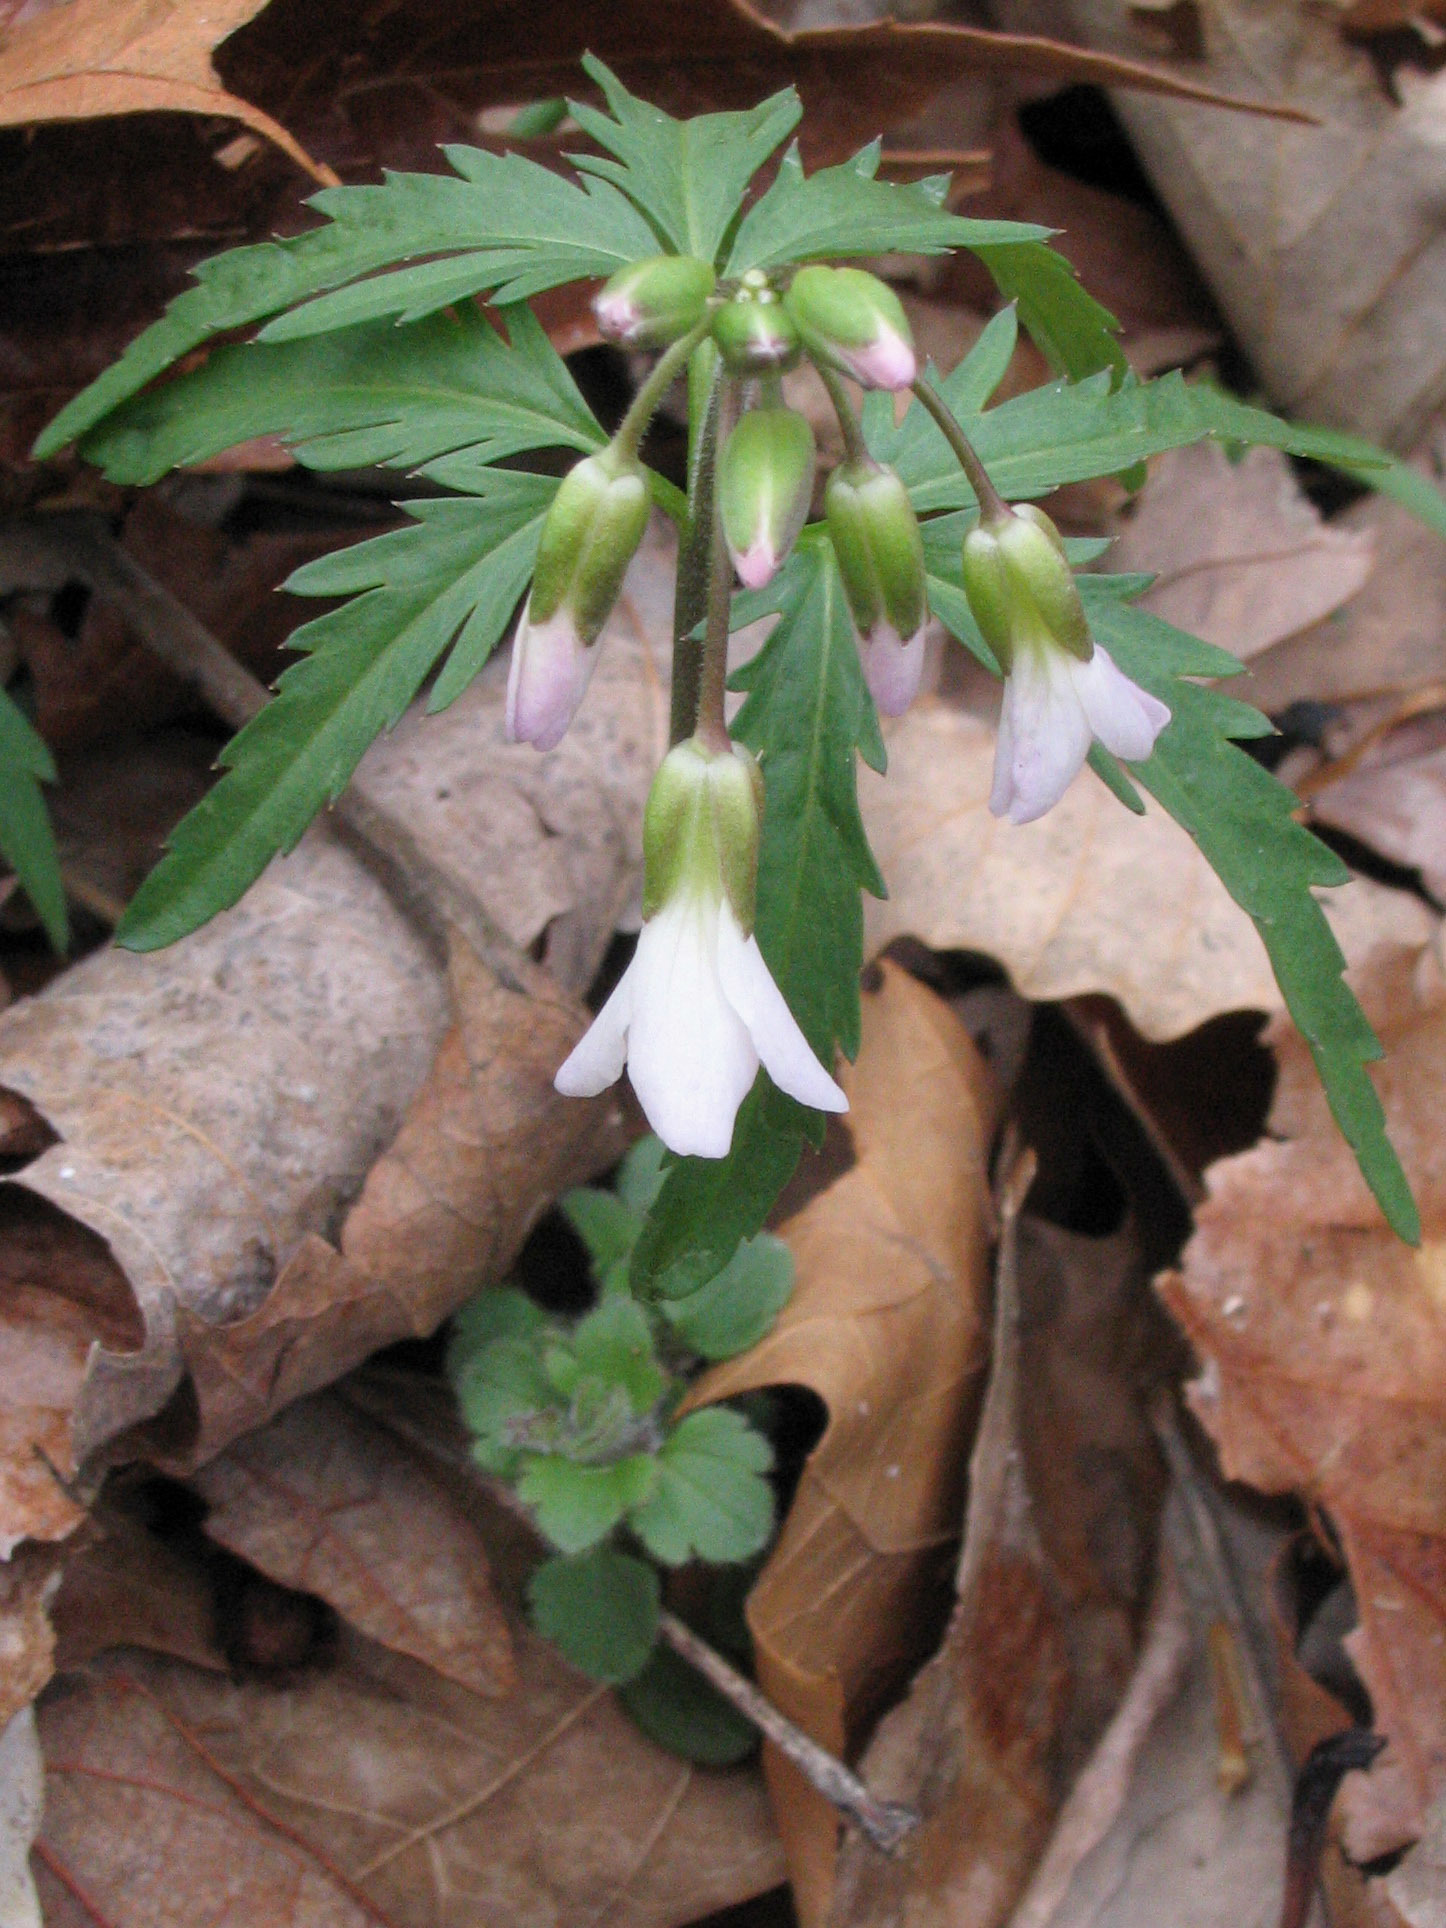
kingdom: Plantae
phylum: Tracheophyta
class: Magnoliopsida
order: Brassicales
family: Brassicaceae
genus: Cardamine
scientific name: Cardamine concatenata
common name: Cut-leaf toothcup
